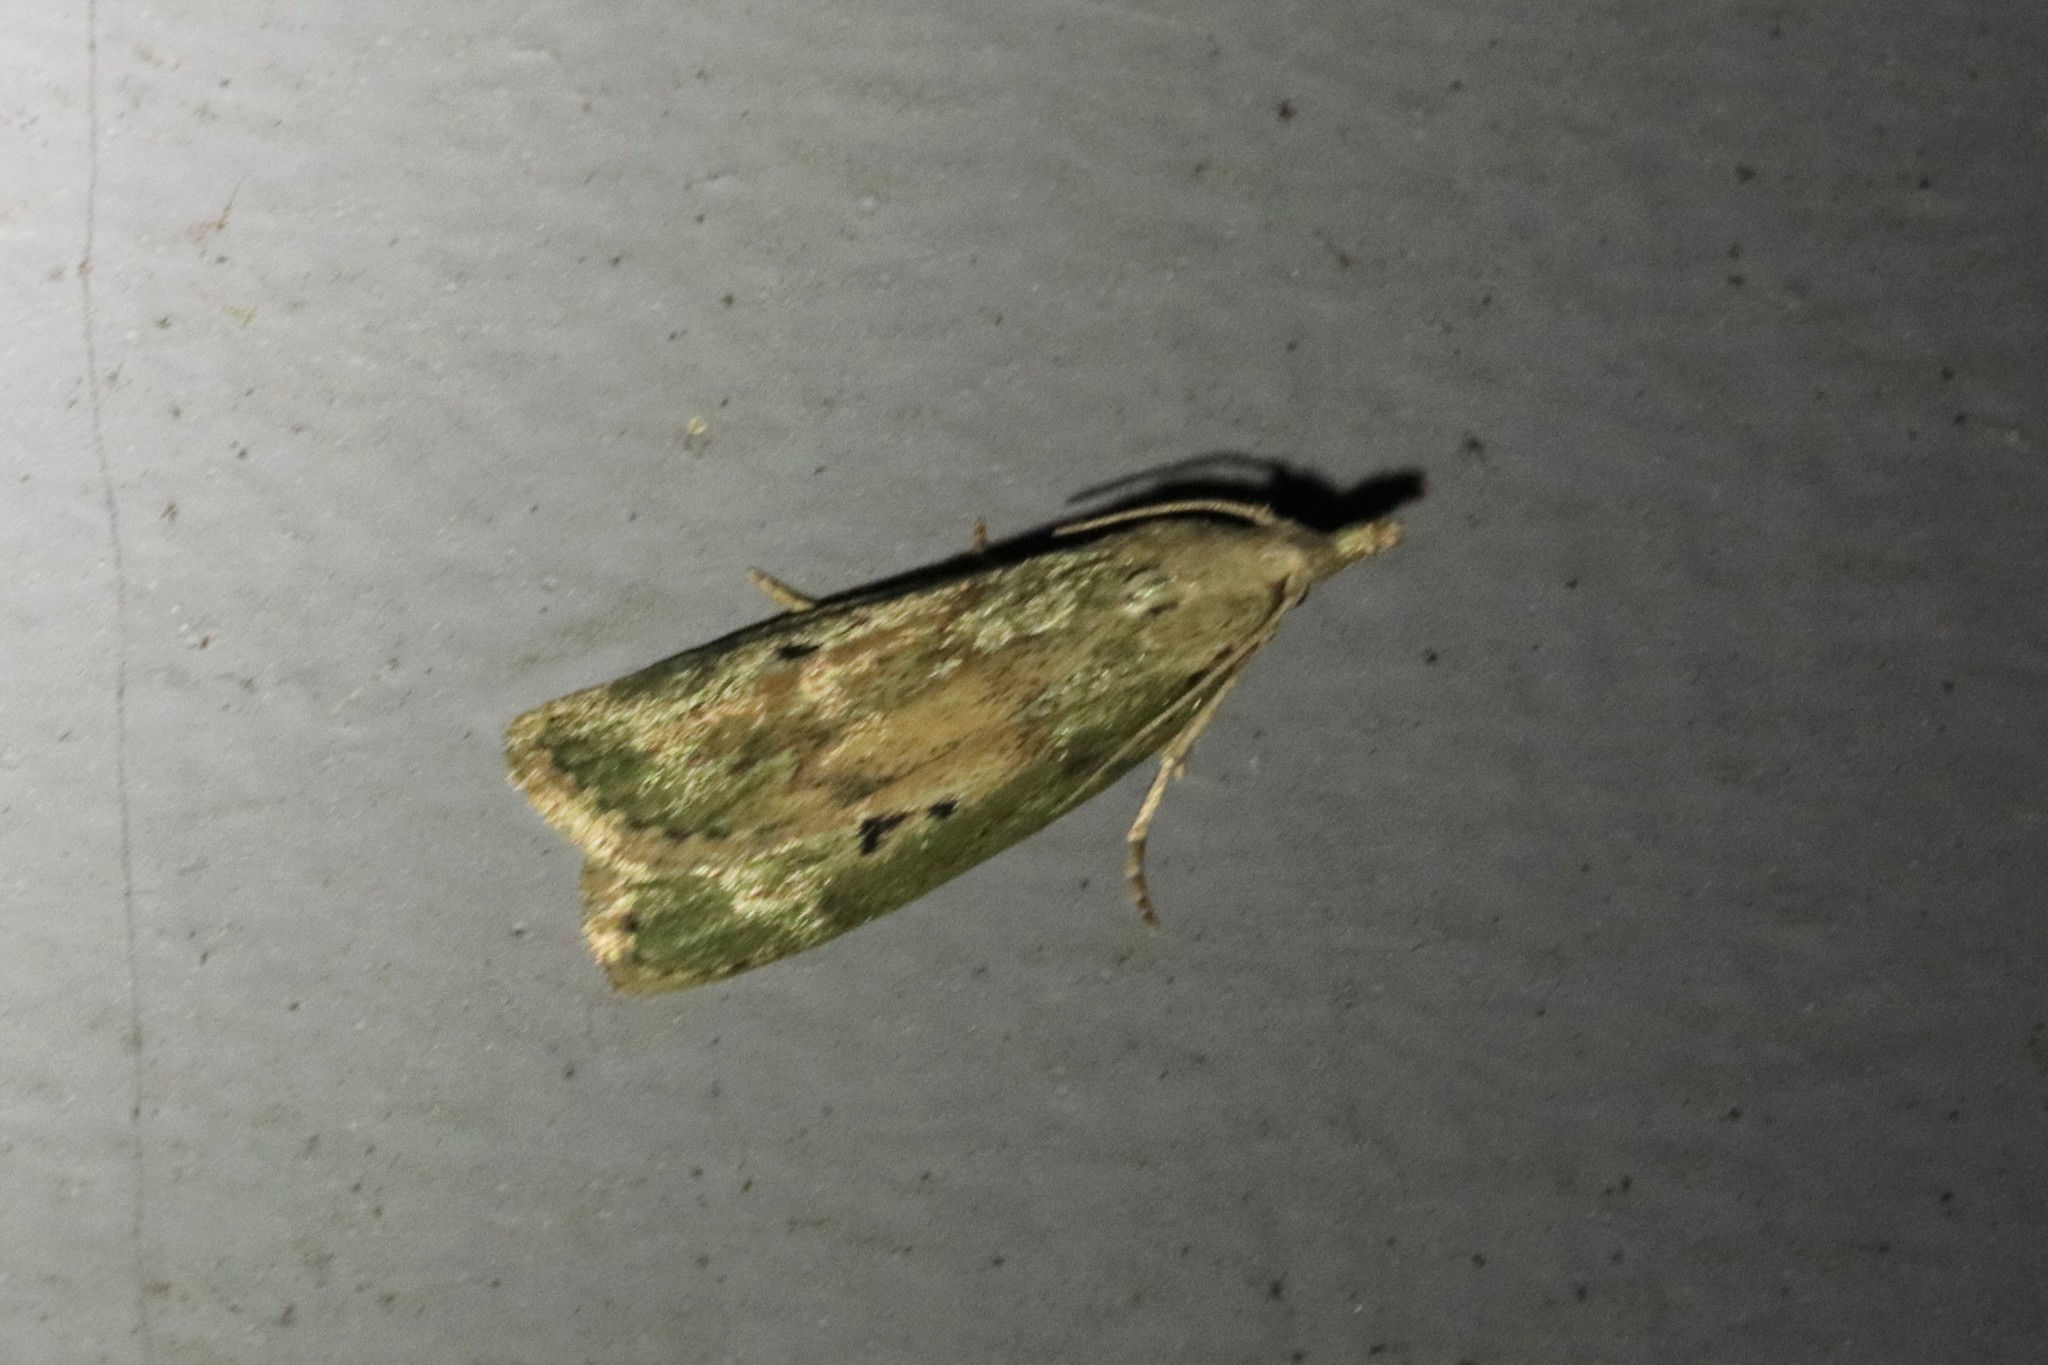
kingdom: Animalia
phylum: Arthropoda
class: Insecta
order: Lepidoptera
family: Pyralidae
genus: Aphomia
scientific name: Aphomia sociella
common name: Bee moth
